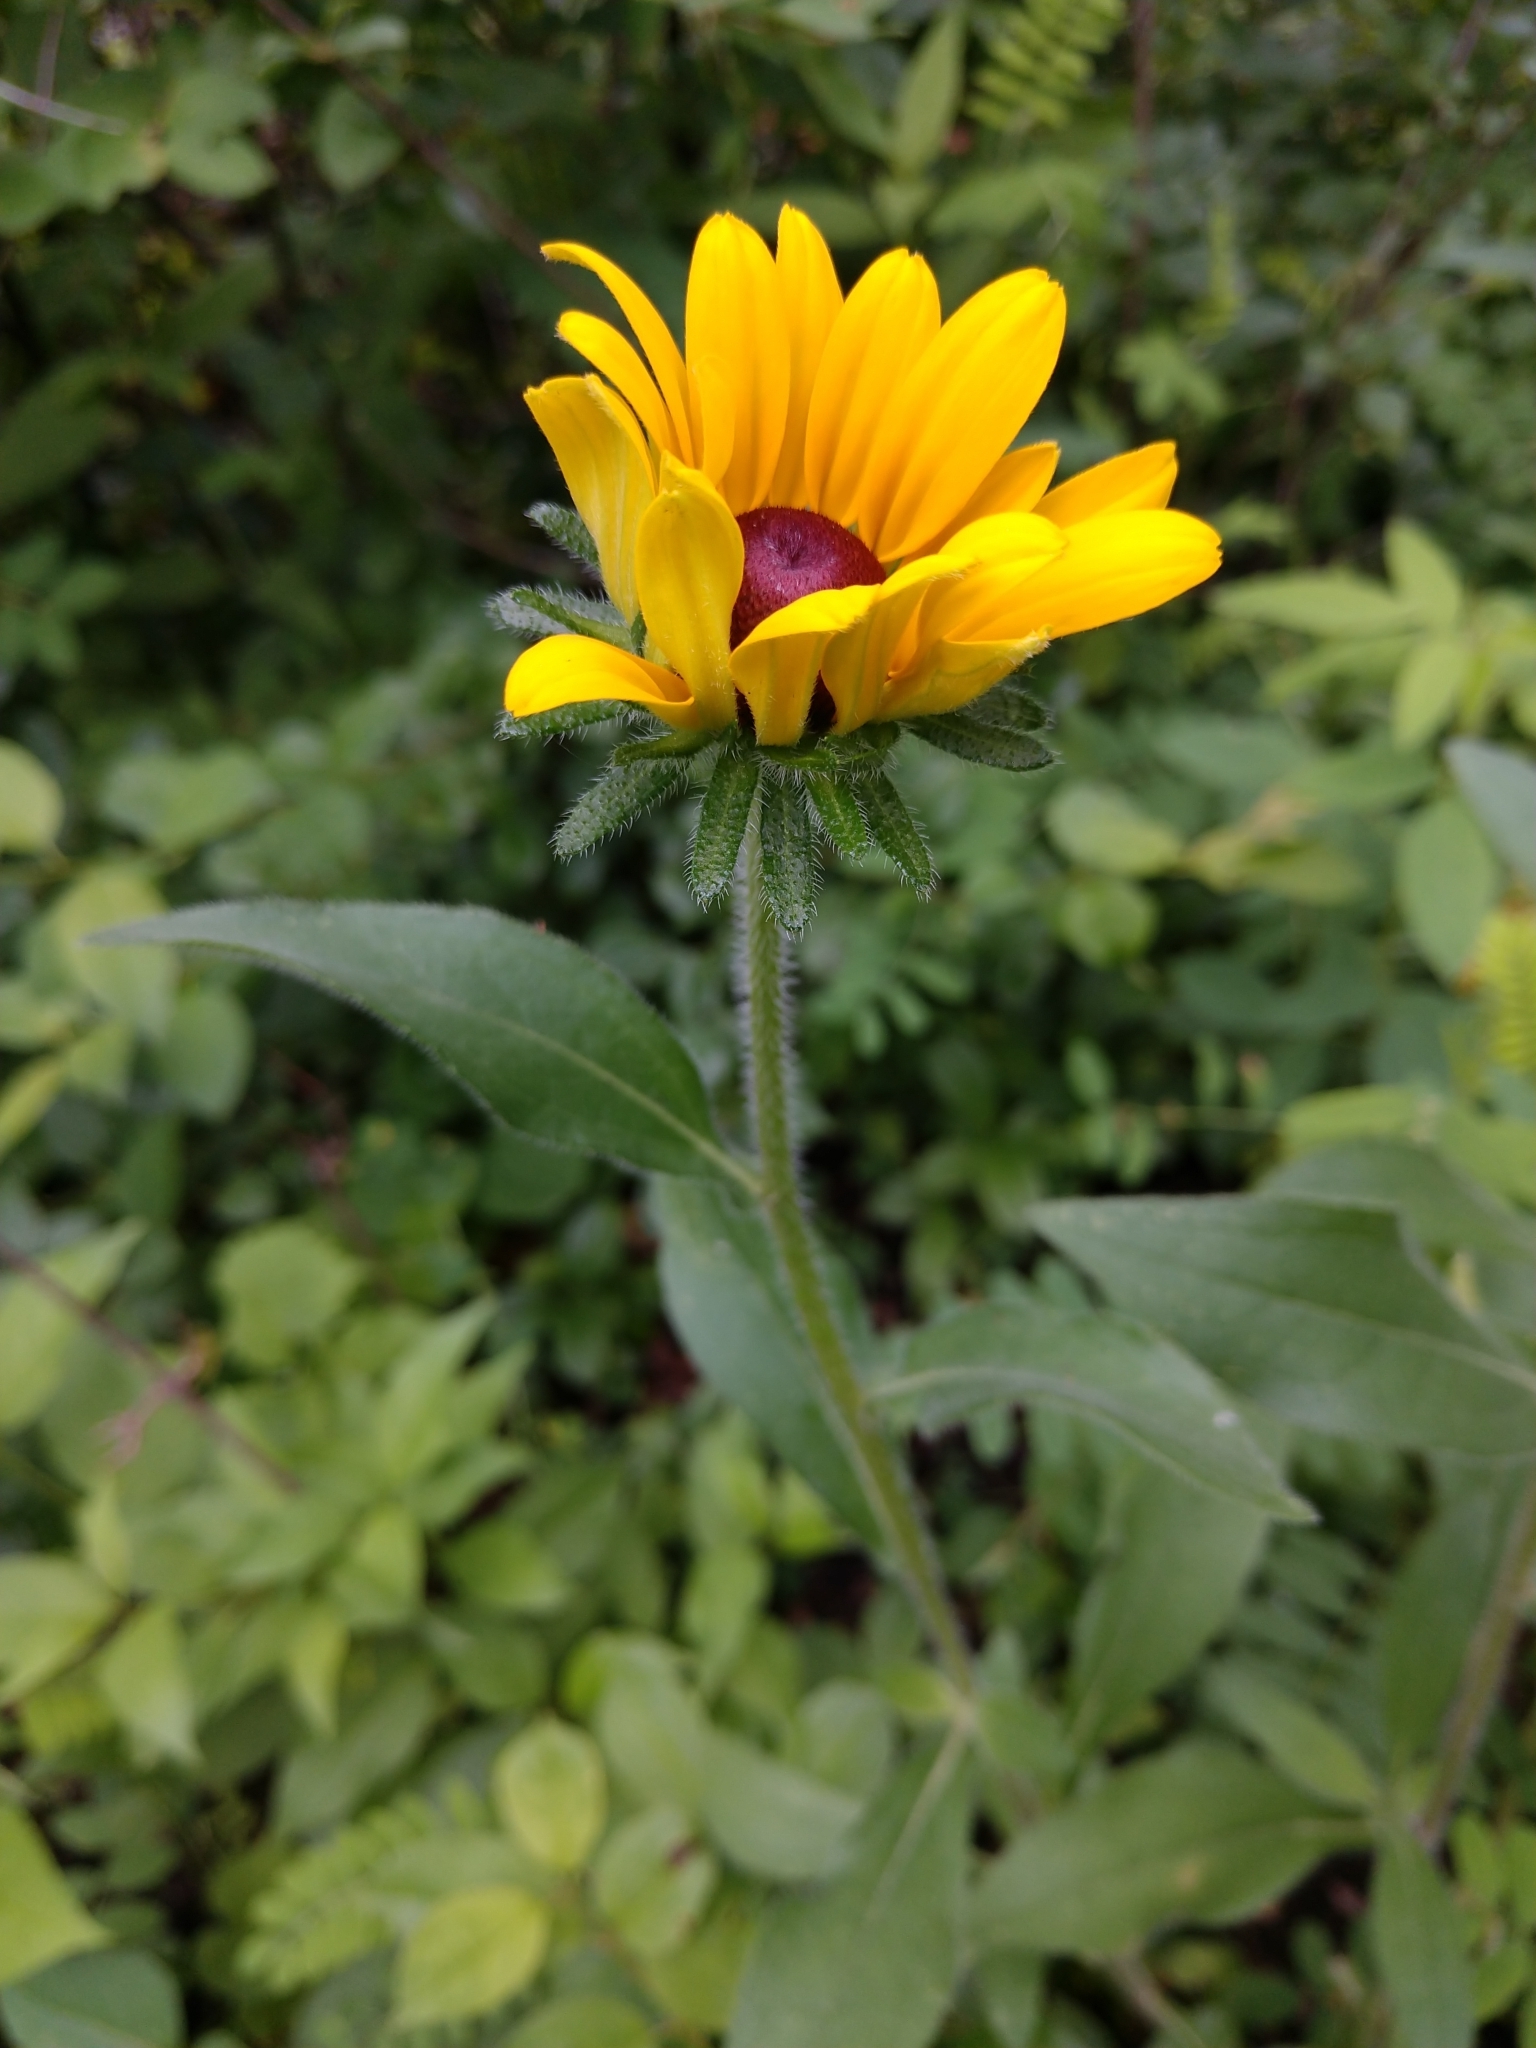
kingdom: Plantae
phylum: Tracheophyta
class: Magnoliopsida
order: Asterales
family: Asteraceae
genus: Rudbeckia
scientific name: Rudbeckia hirta
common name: Black-eyed-susan
